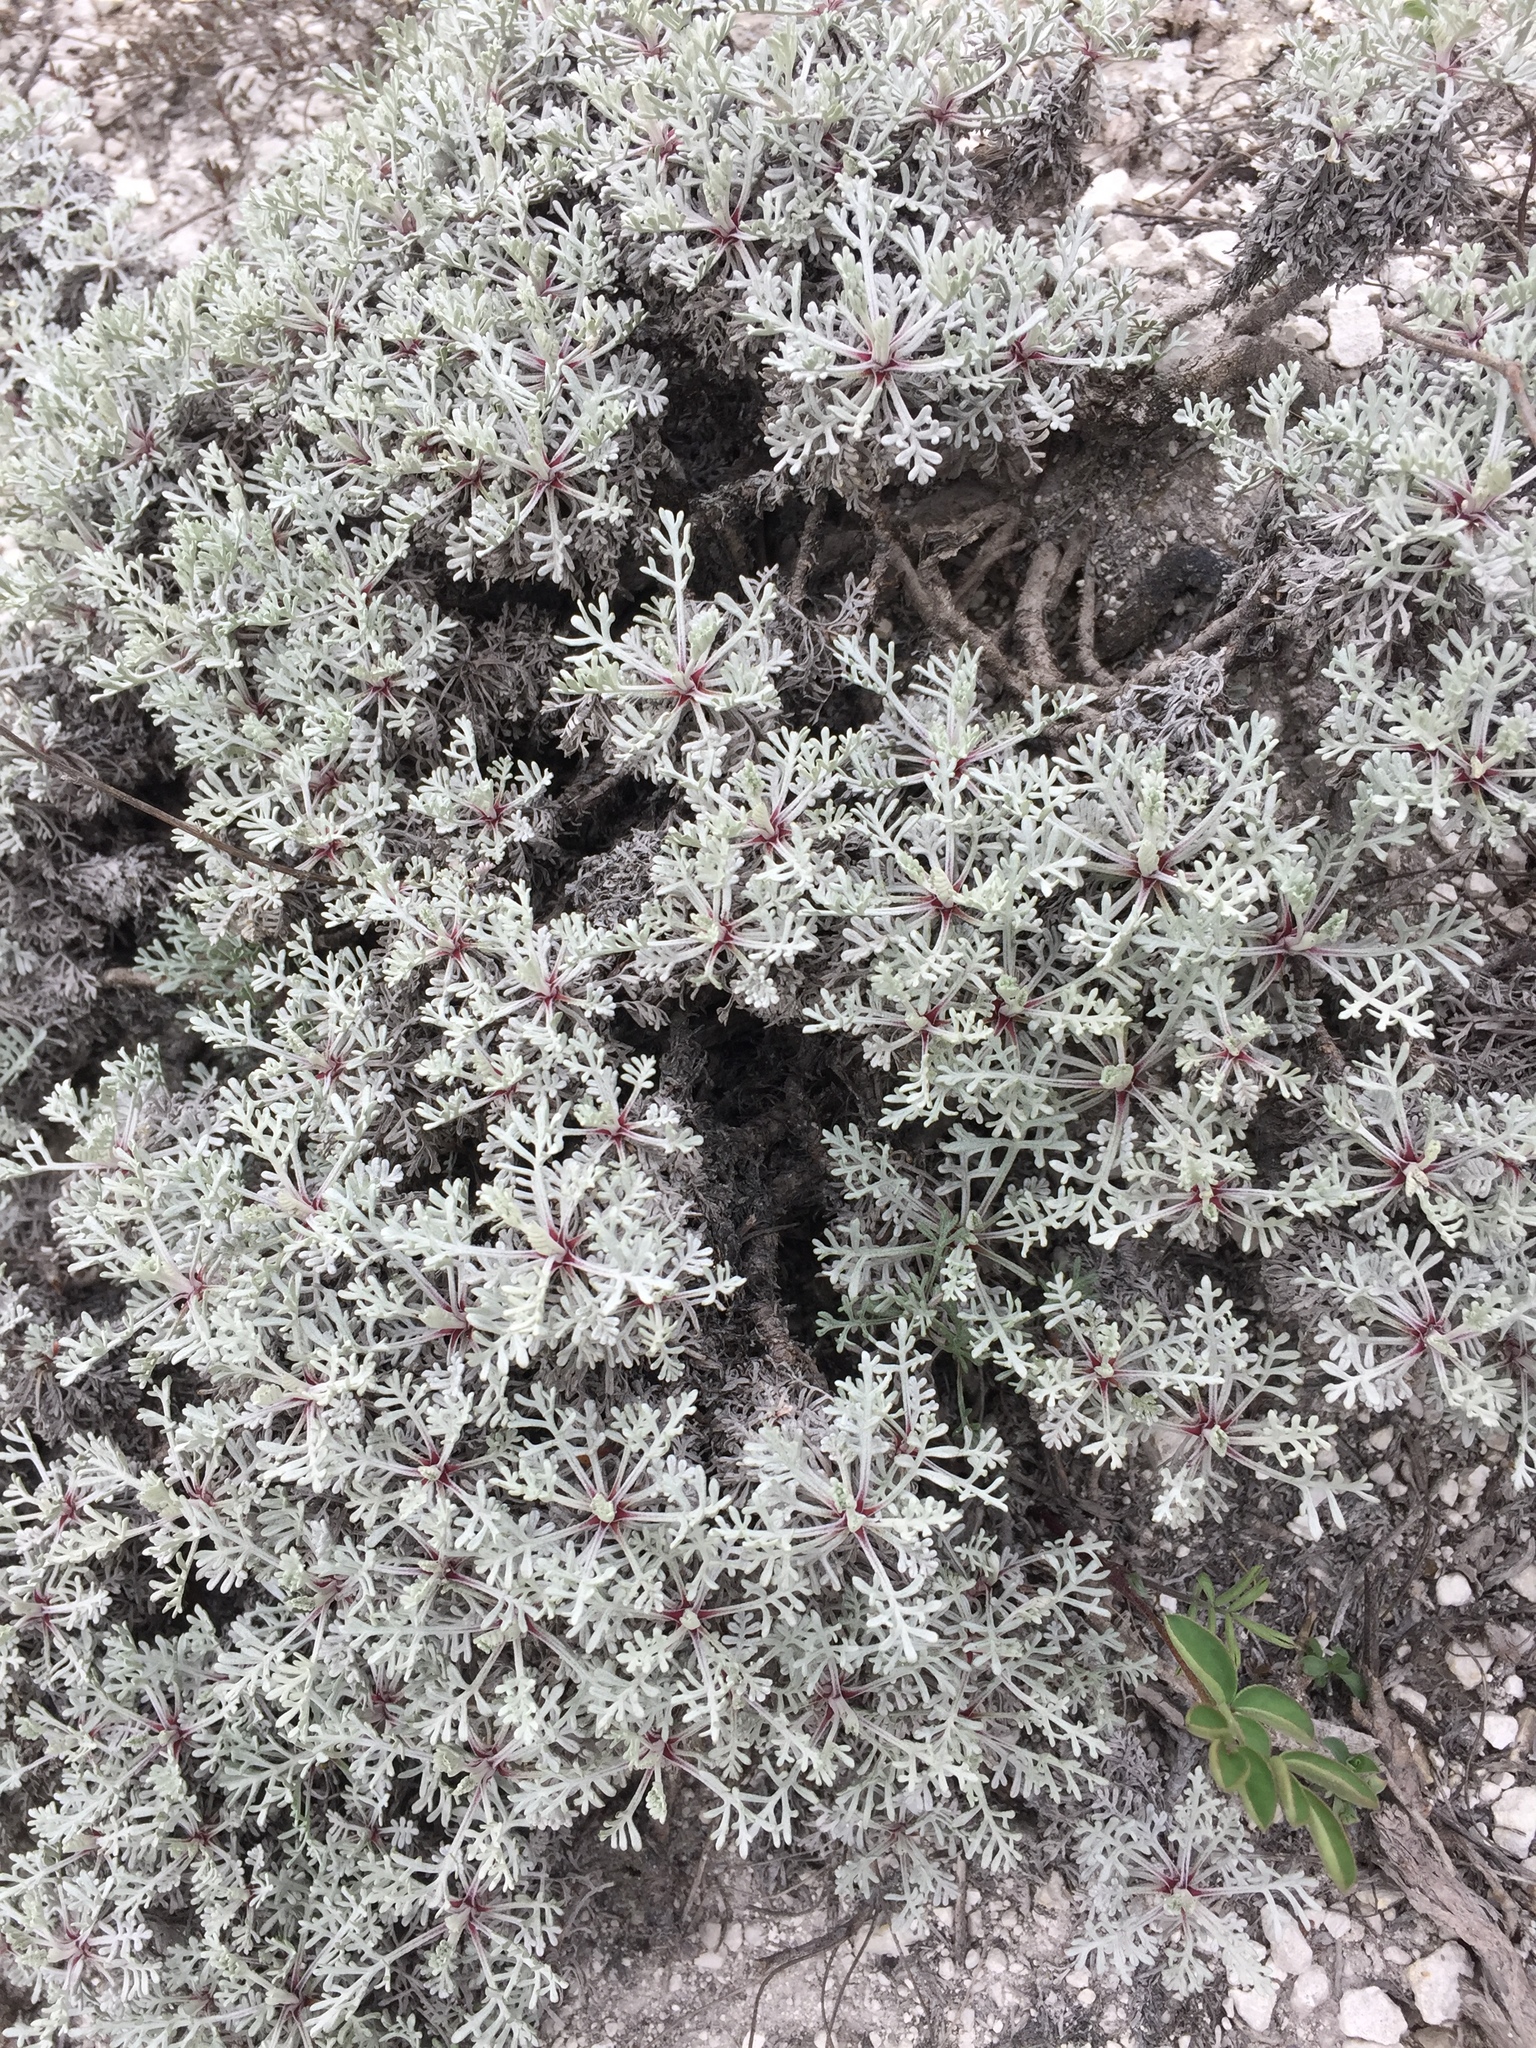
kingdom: Plantae
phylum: Tracheophyta
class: Magnoliopsida
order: Asterales
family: Asteraceae
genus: Artemisia
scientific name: Artemisia hololeuca
